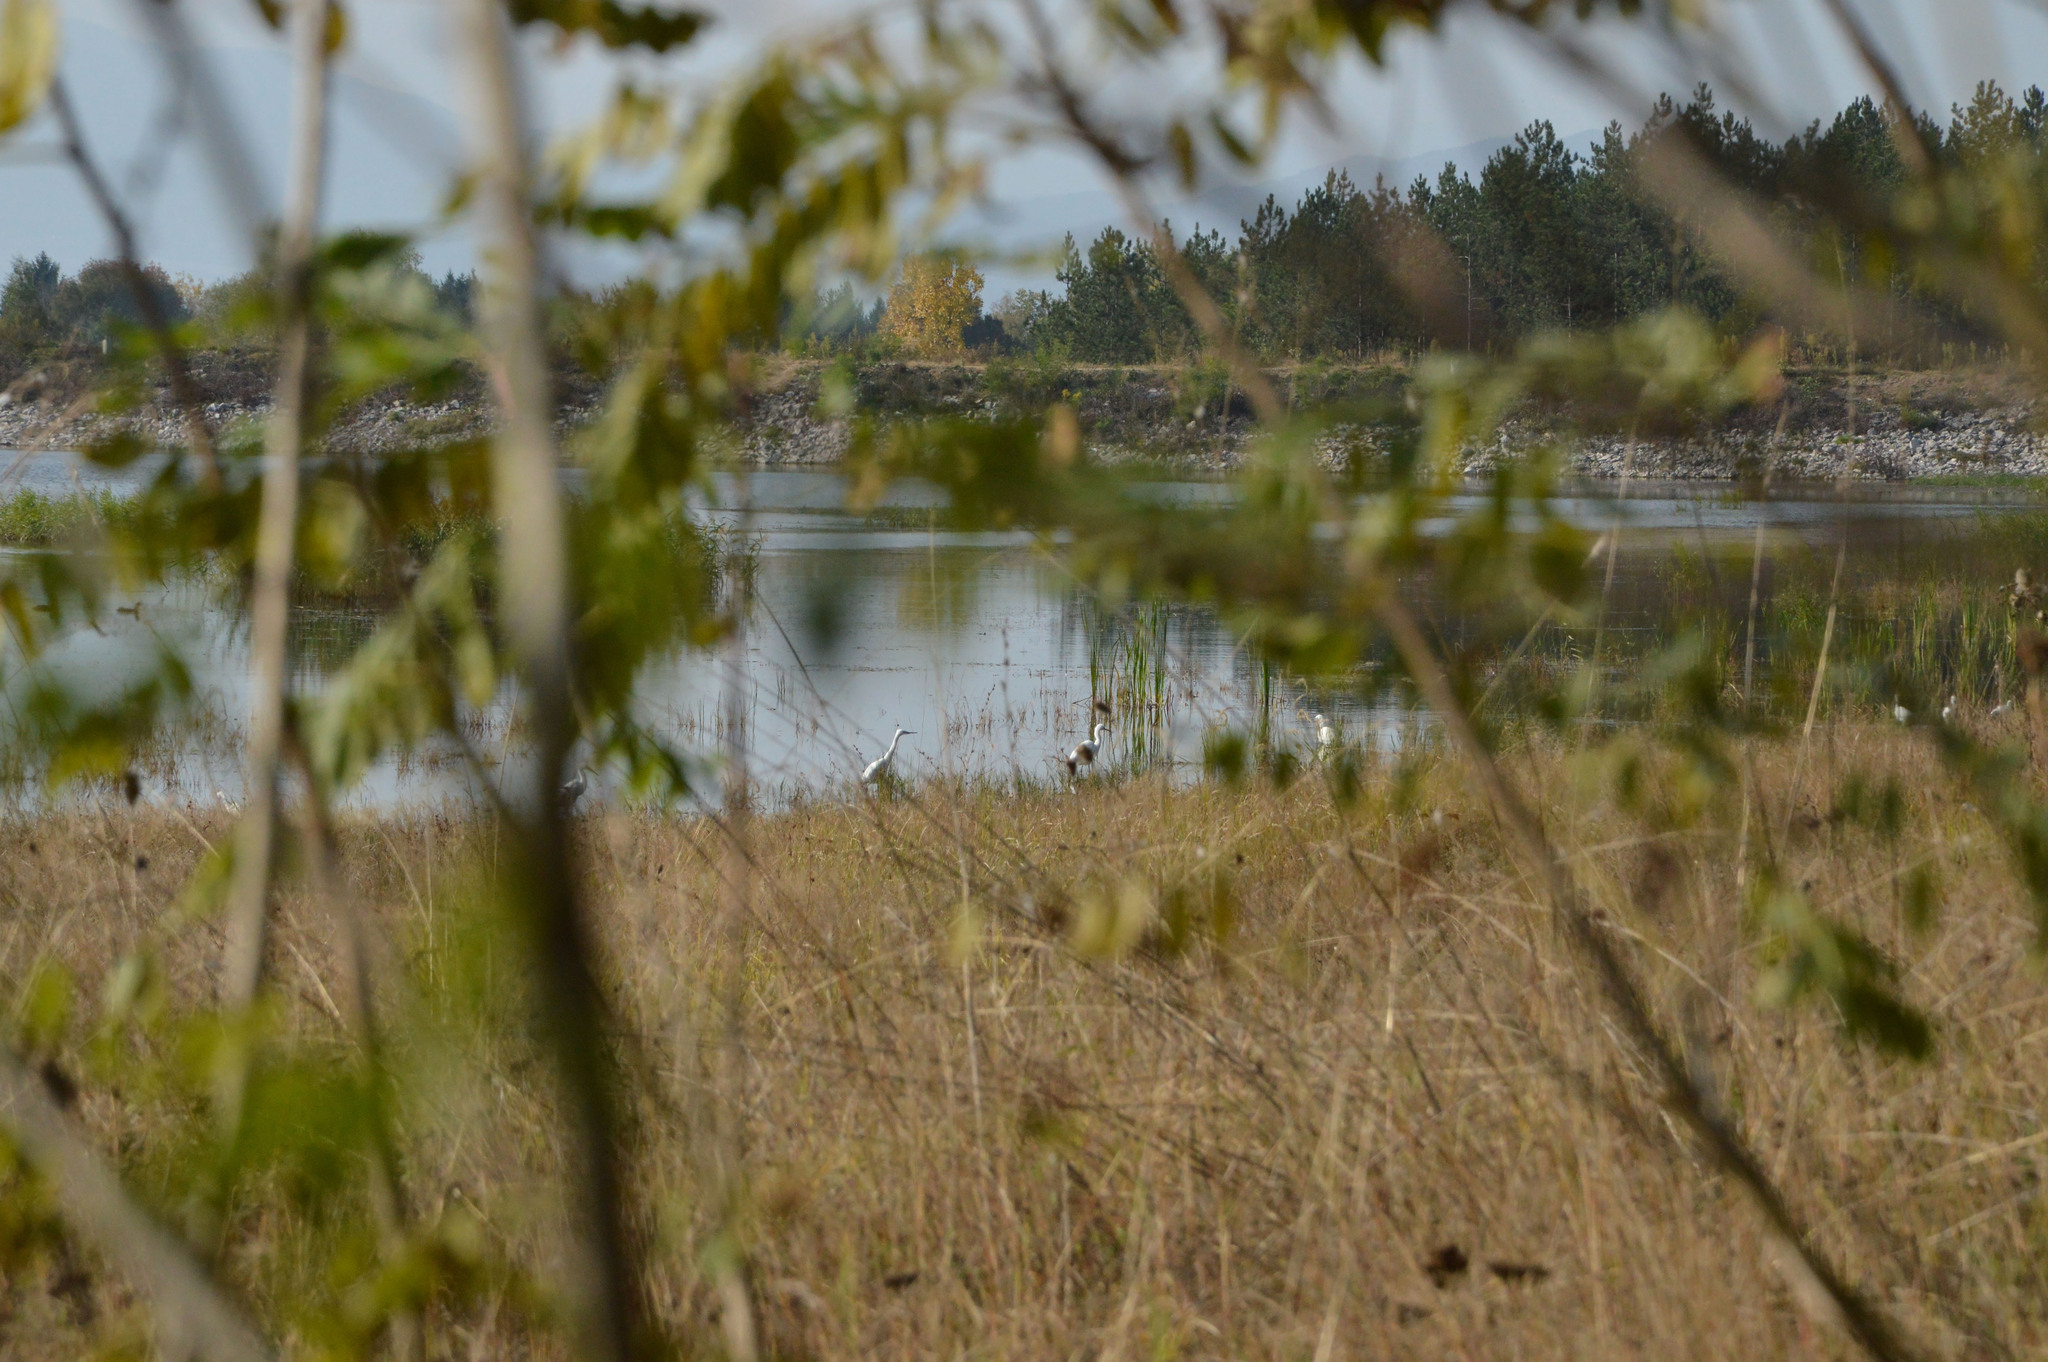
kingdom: Animalia
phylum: Chordata
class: Aves
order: Pelecaniformes
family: Ardeidae
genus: Egretta
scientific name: Egretta garzetta
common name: Little egret
